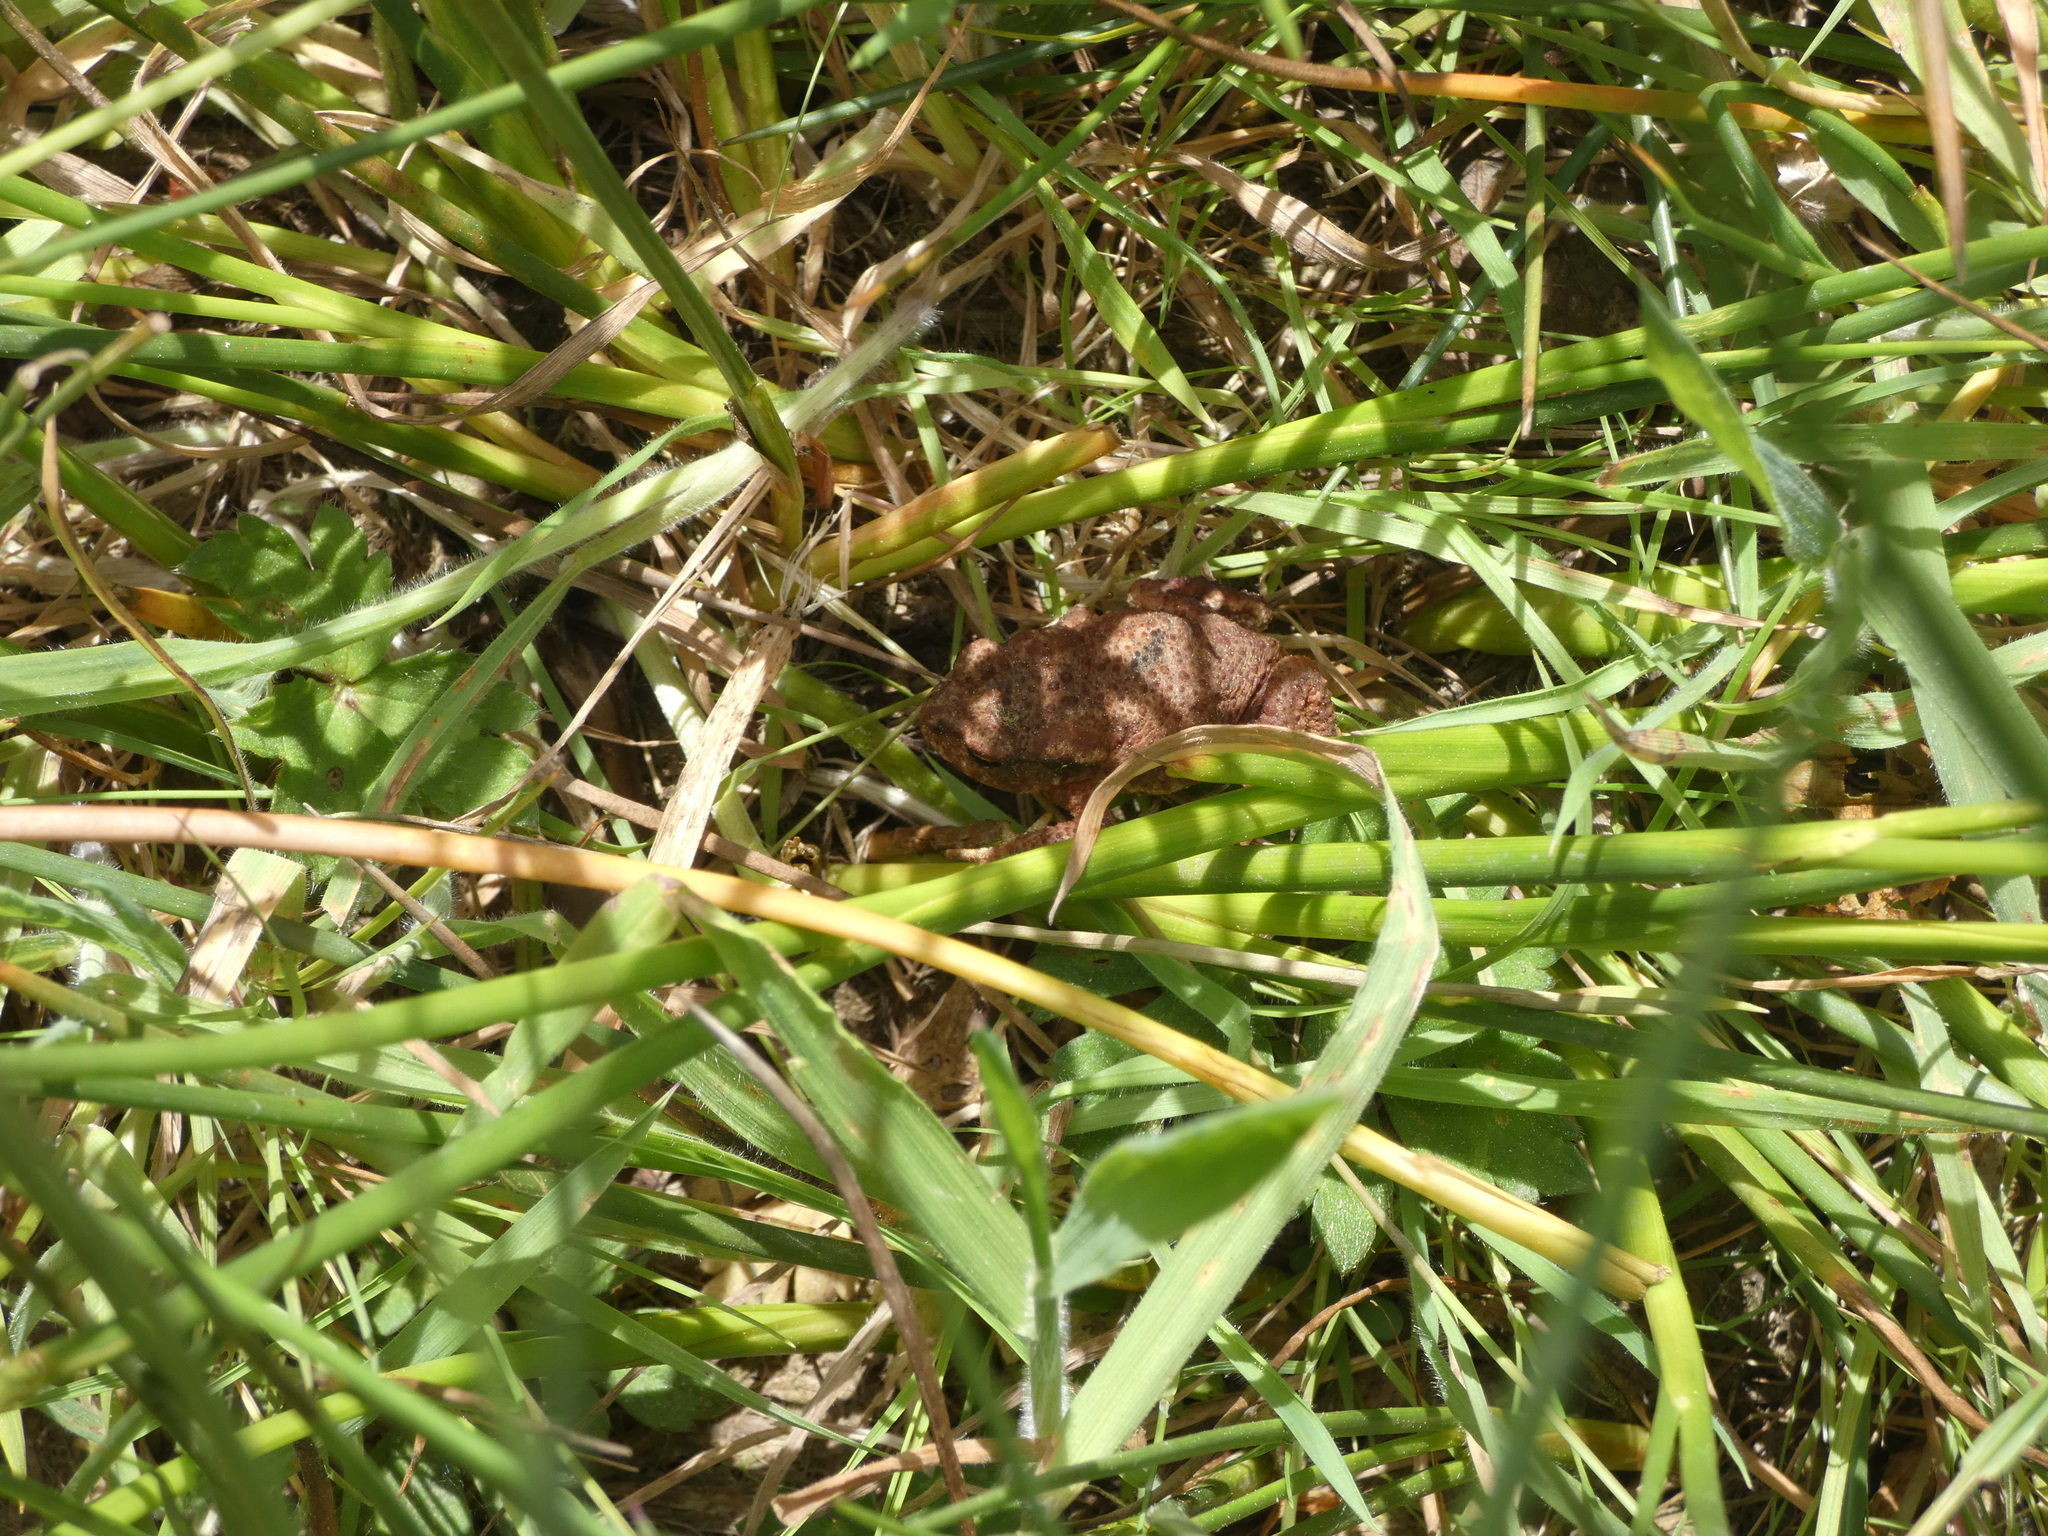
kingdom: Animalia
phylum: Chordata
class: Amphibia
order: Anura
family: Bufonidae
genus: Bufo
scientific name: Bufo spinosus
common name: Western common toad
